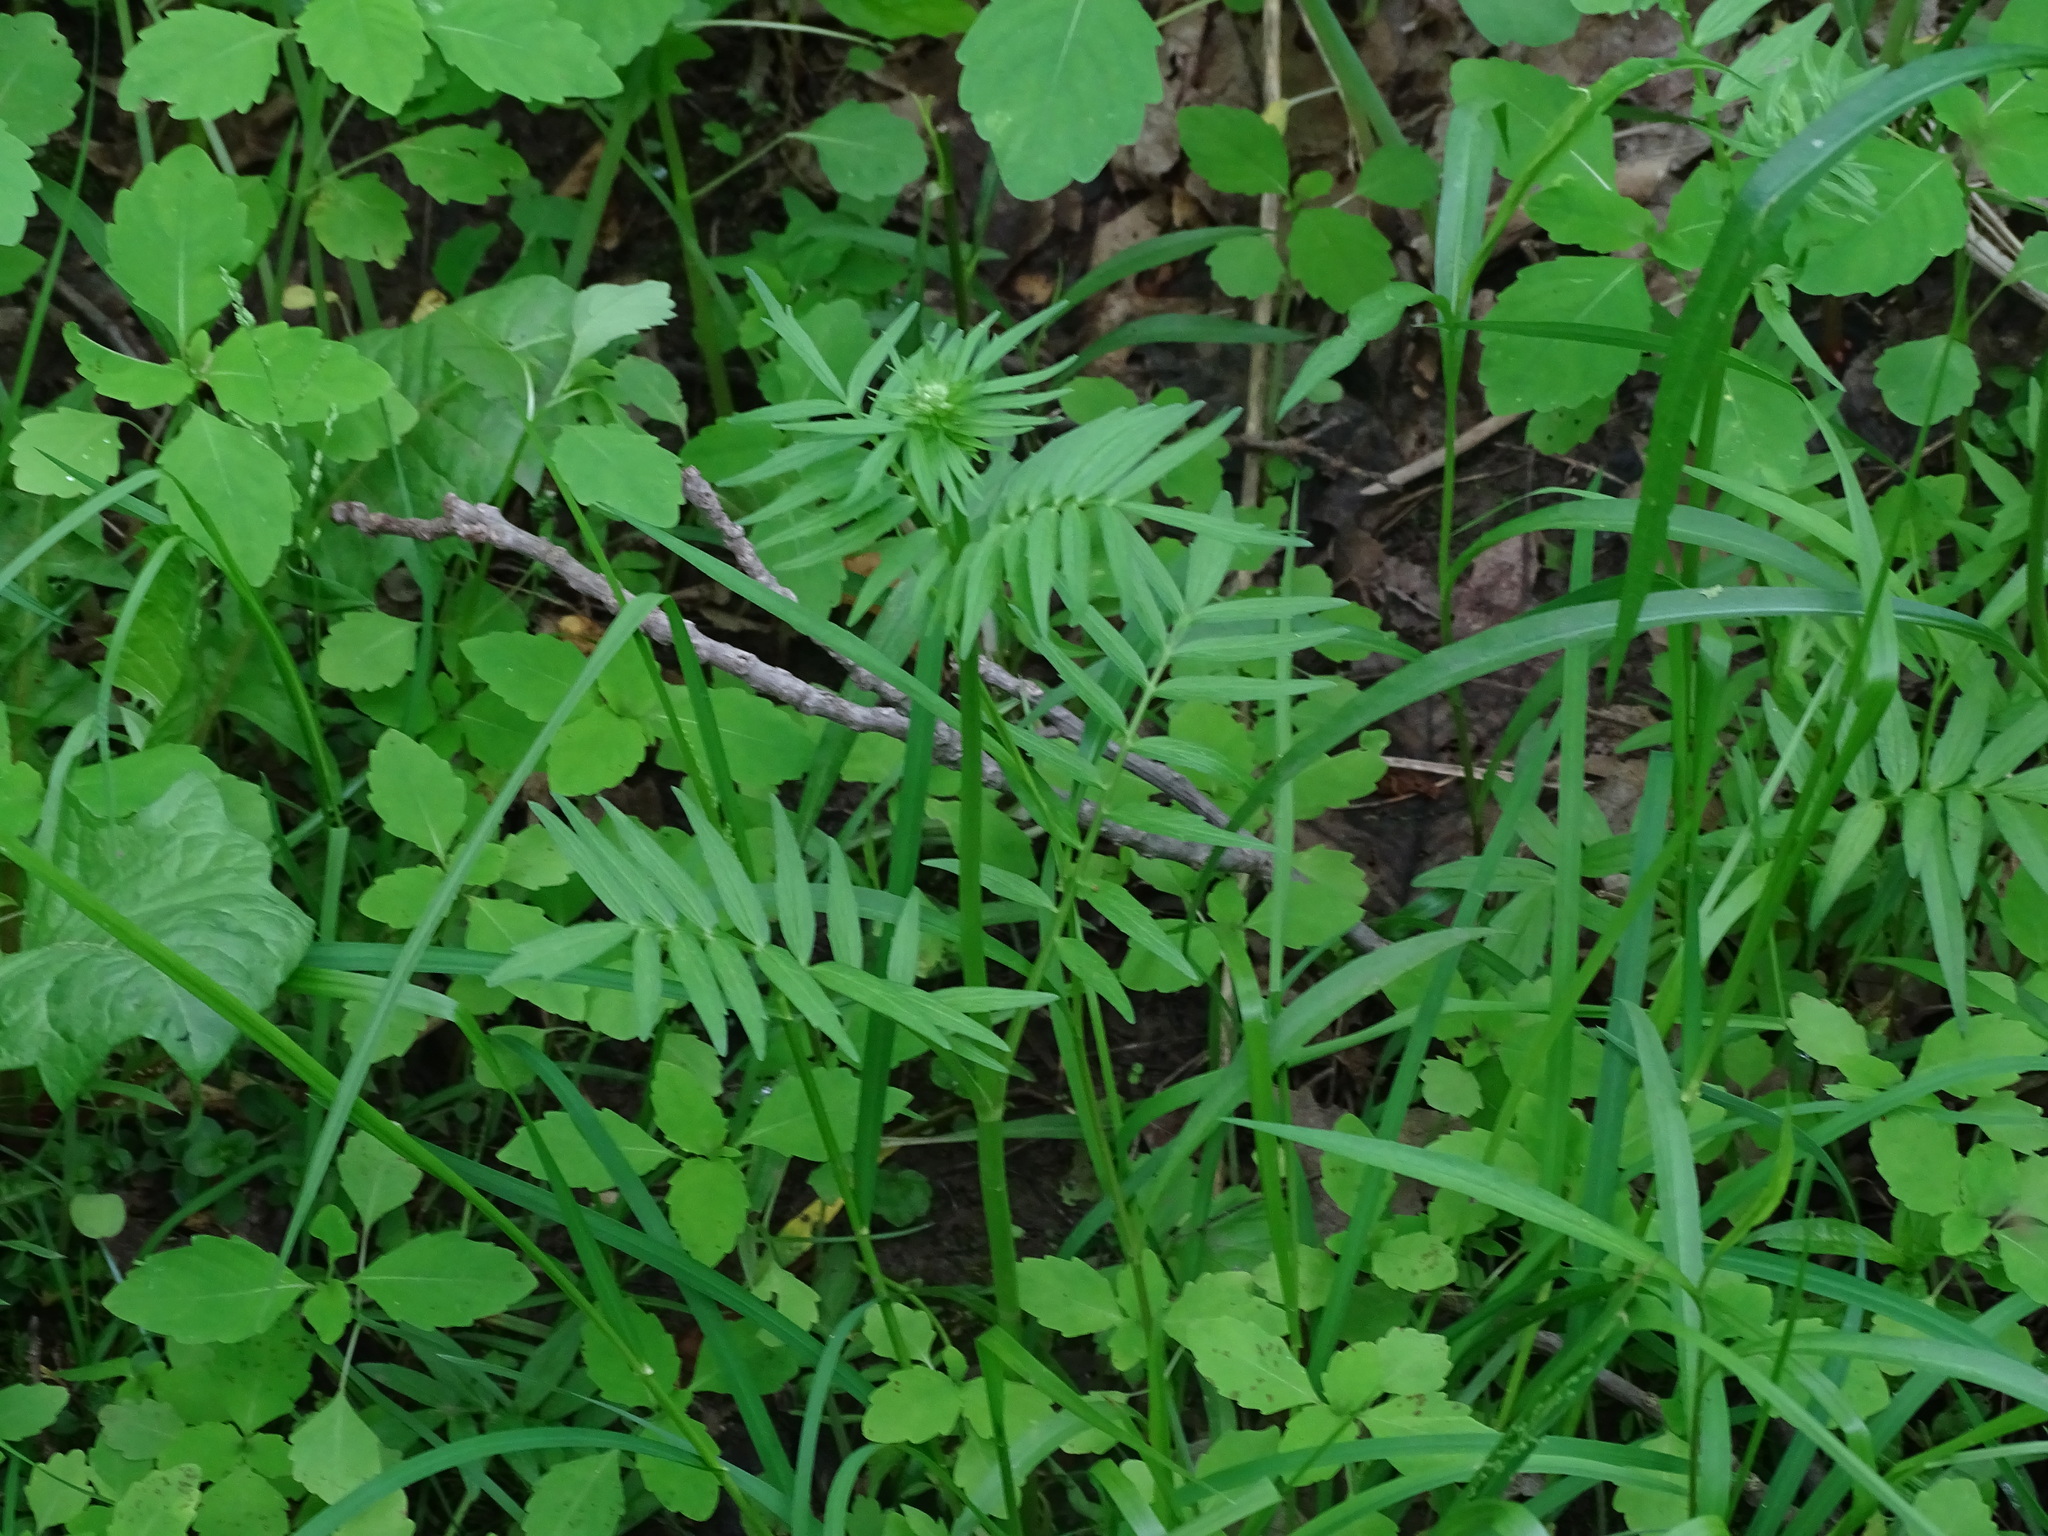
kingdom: Plantae
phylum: Tracheophyta
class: Magnoliopsida
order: Dipsacales
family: Caprifoliaceae
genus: Valeriana
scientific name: Valeriana officinalis
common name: Common valerian
